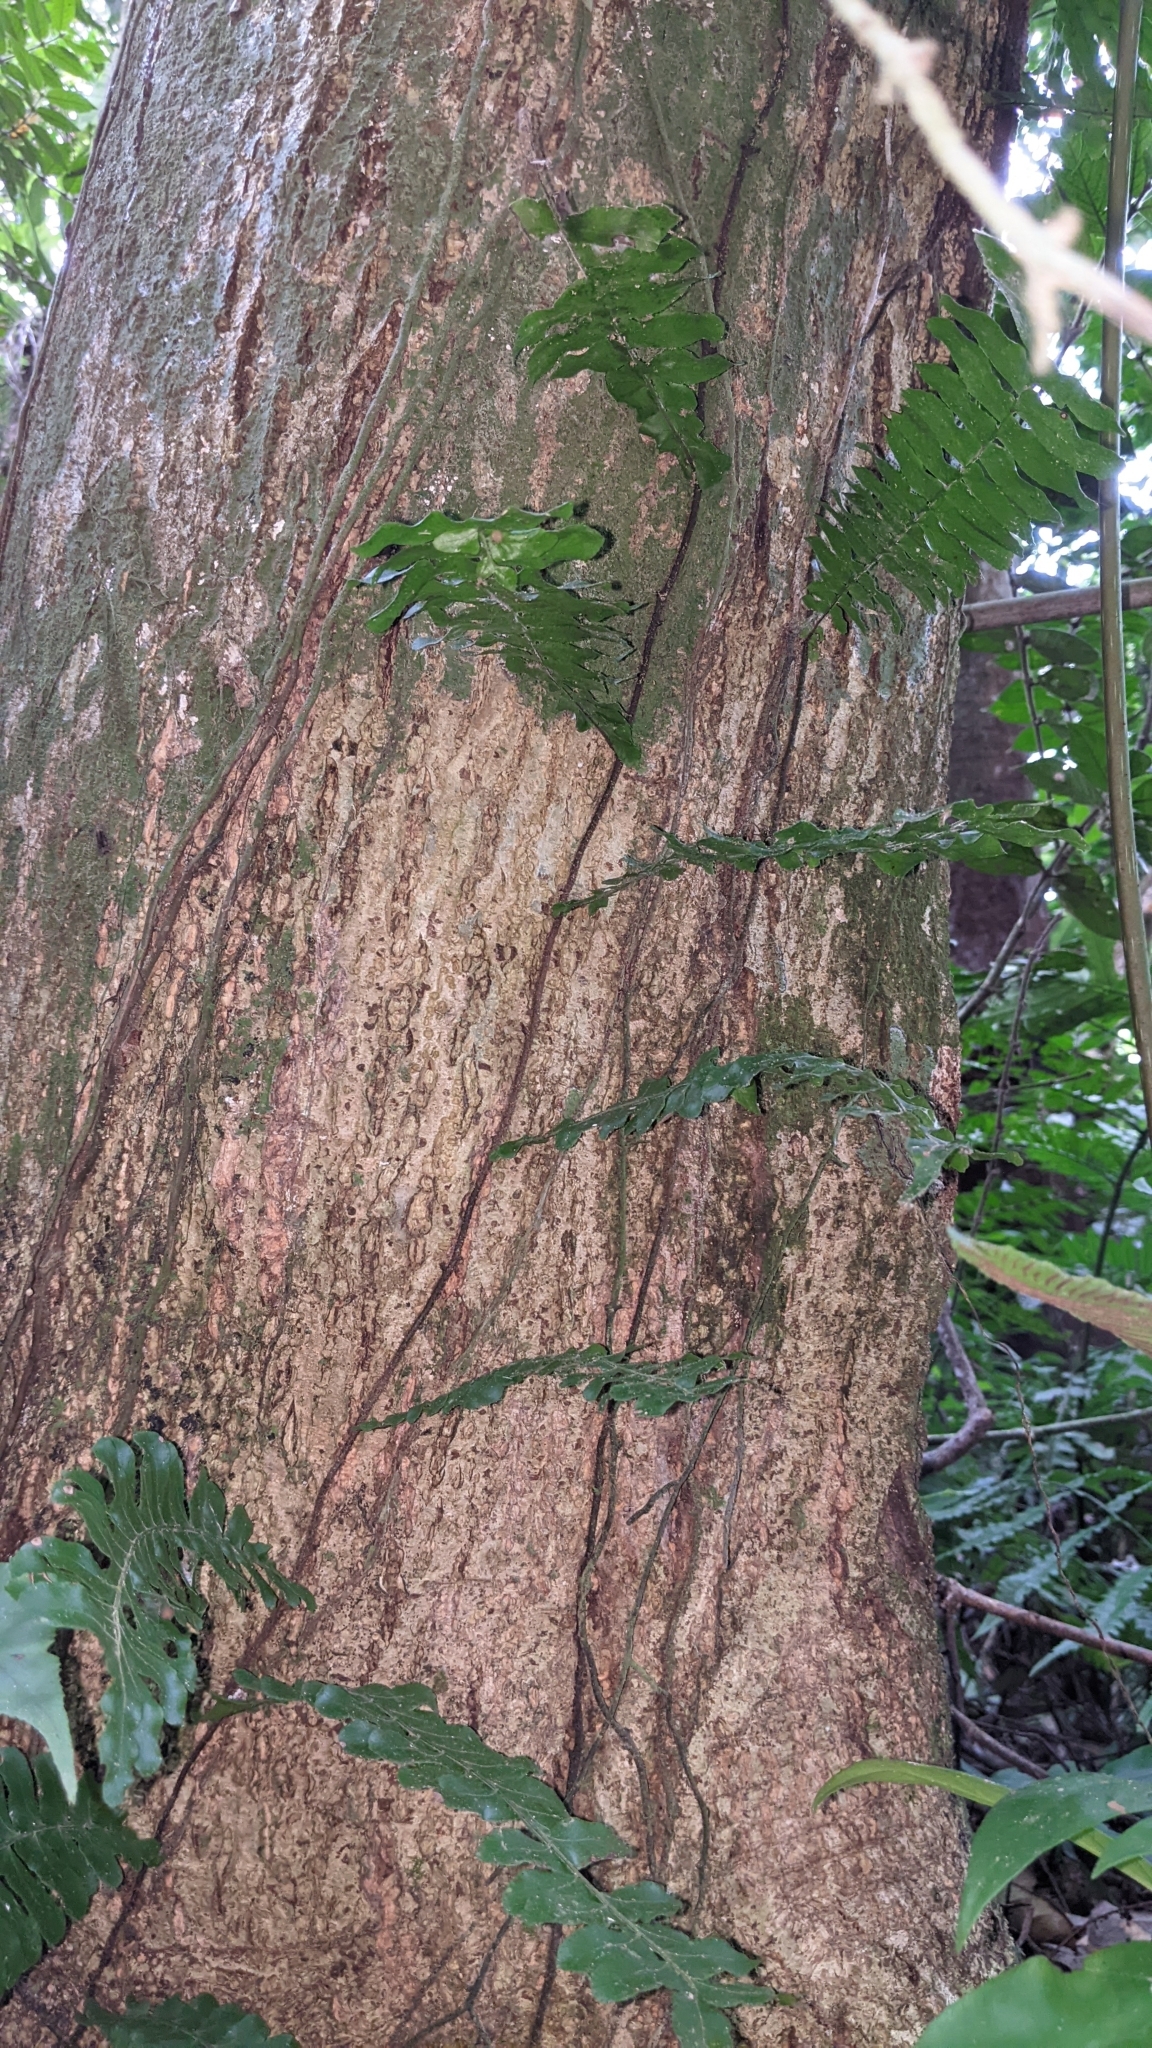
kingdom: Plantae
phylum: Tracheophyta
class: Polypodiopsida
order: Polypodiales
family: Tectariaceae
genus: Arthropteris
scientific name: Arthropteris palisotii
